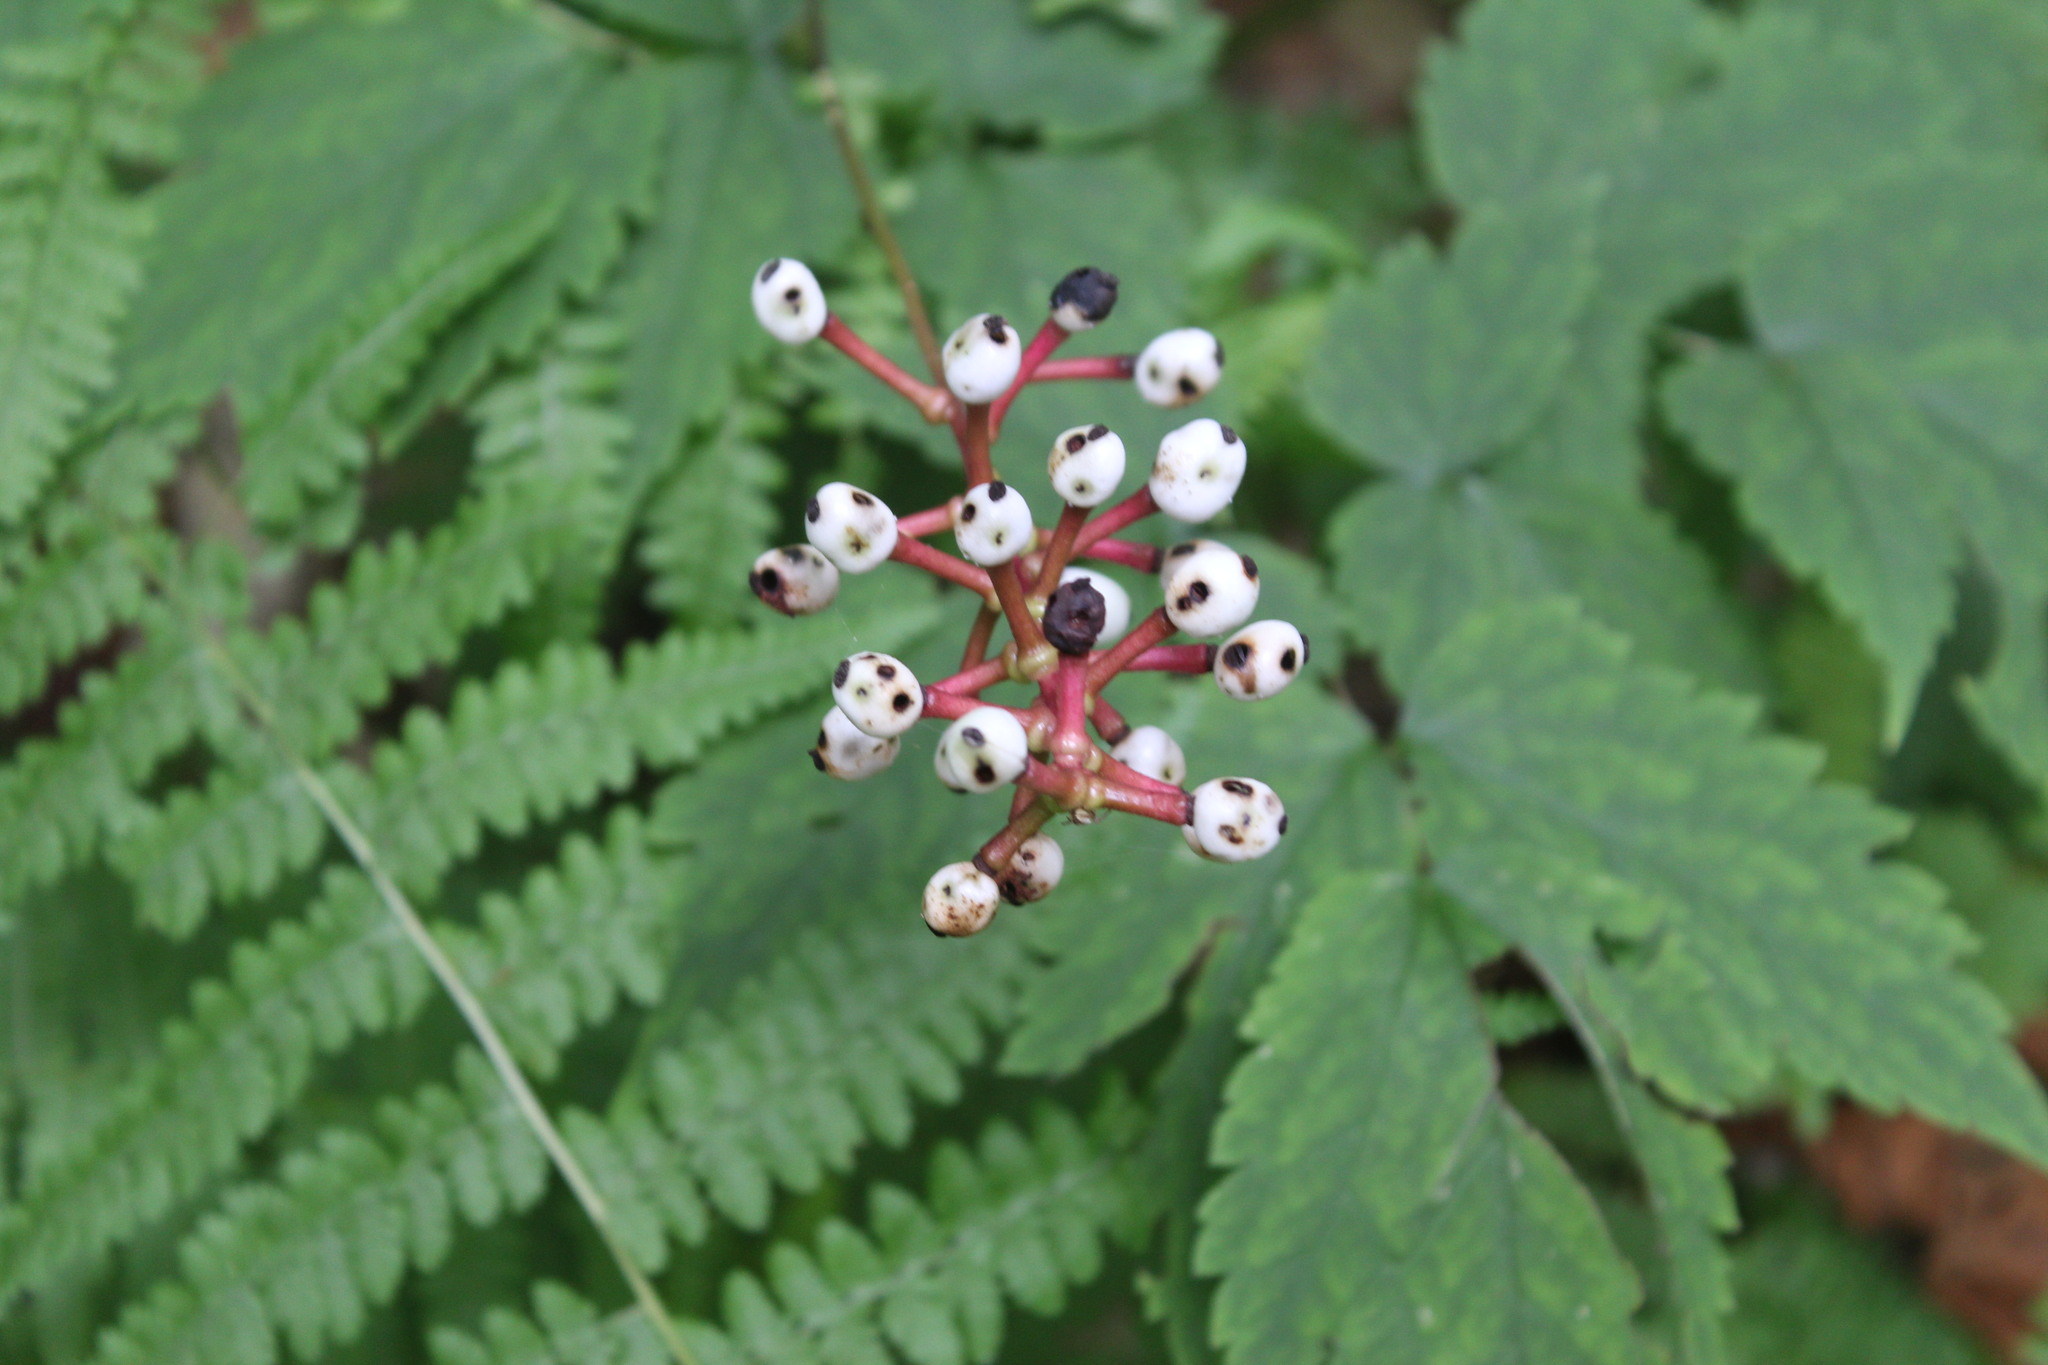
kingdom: Plantae
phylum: Tracheophyta
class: Magnoliopsida
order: Ranunculales
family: Ranunculaceae
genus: Actaea
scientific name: Actaea pachypoda
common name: Doll's-eyes
